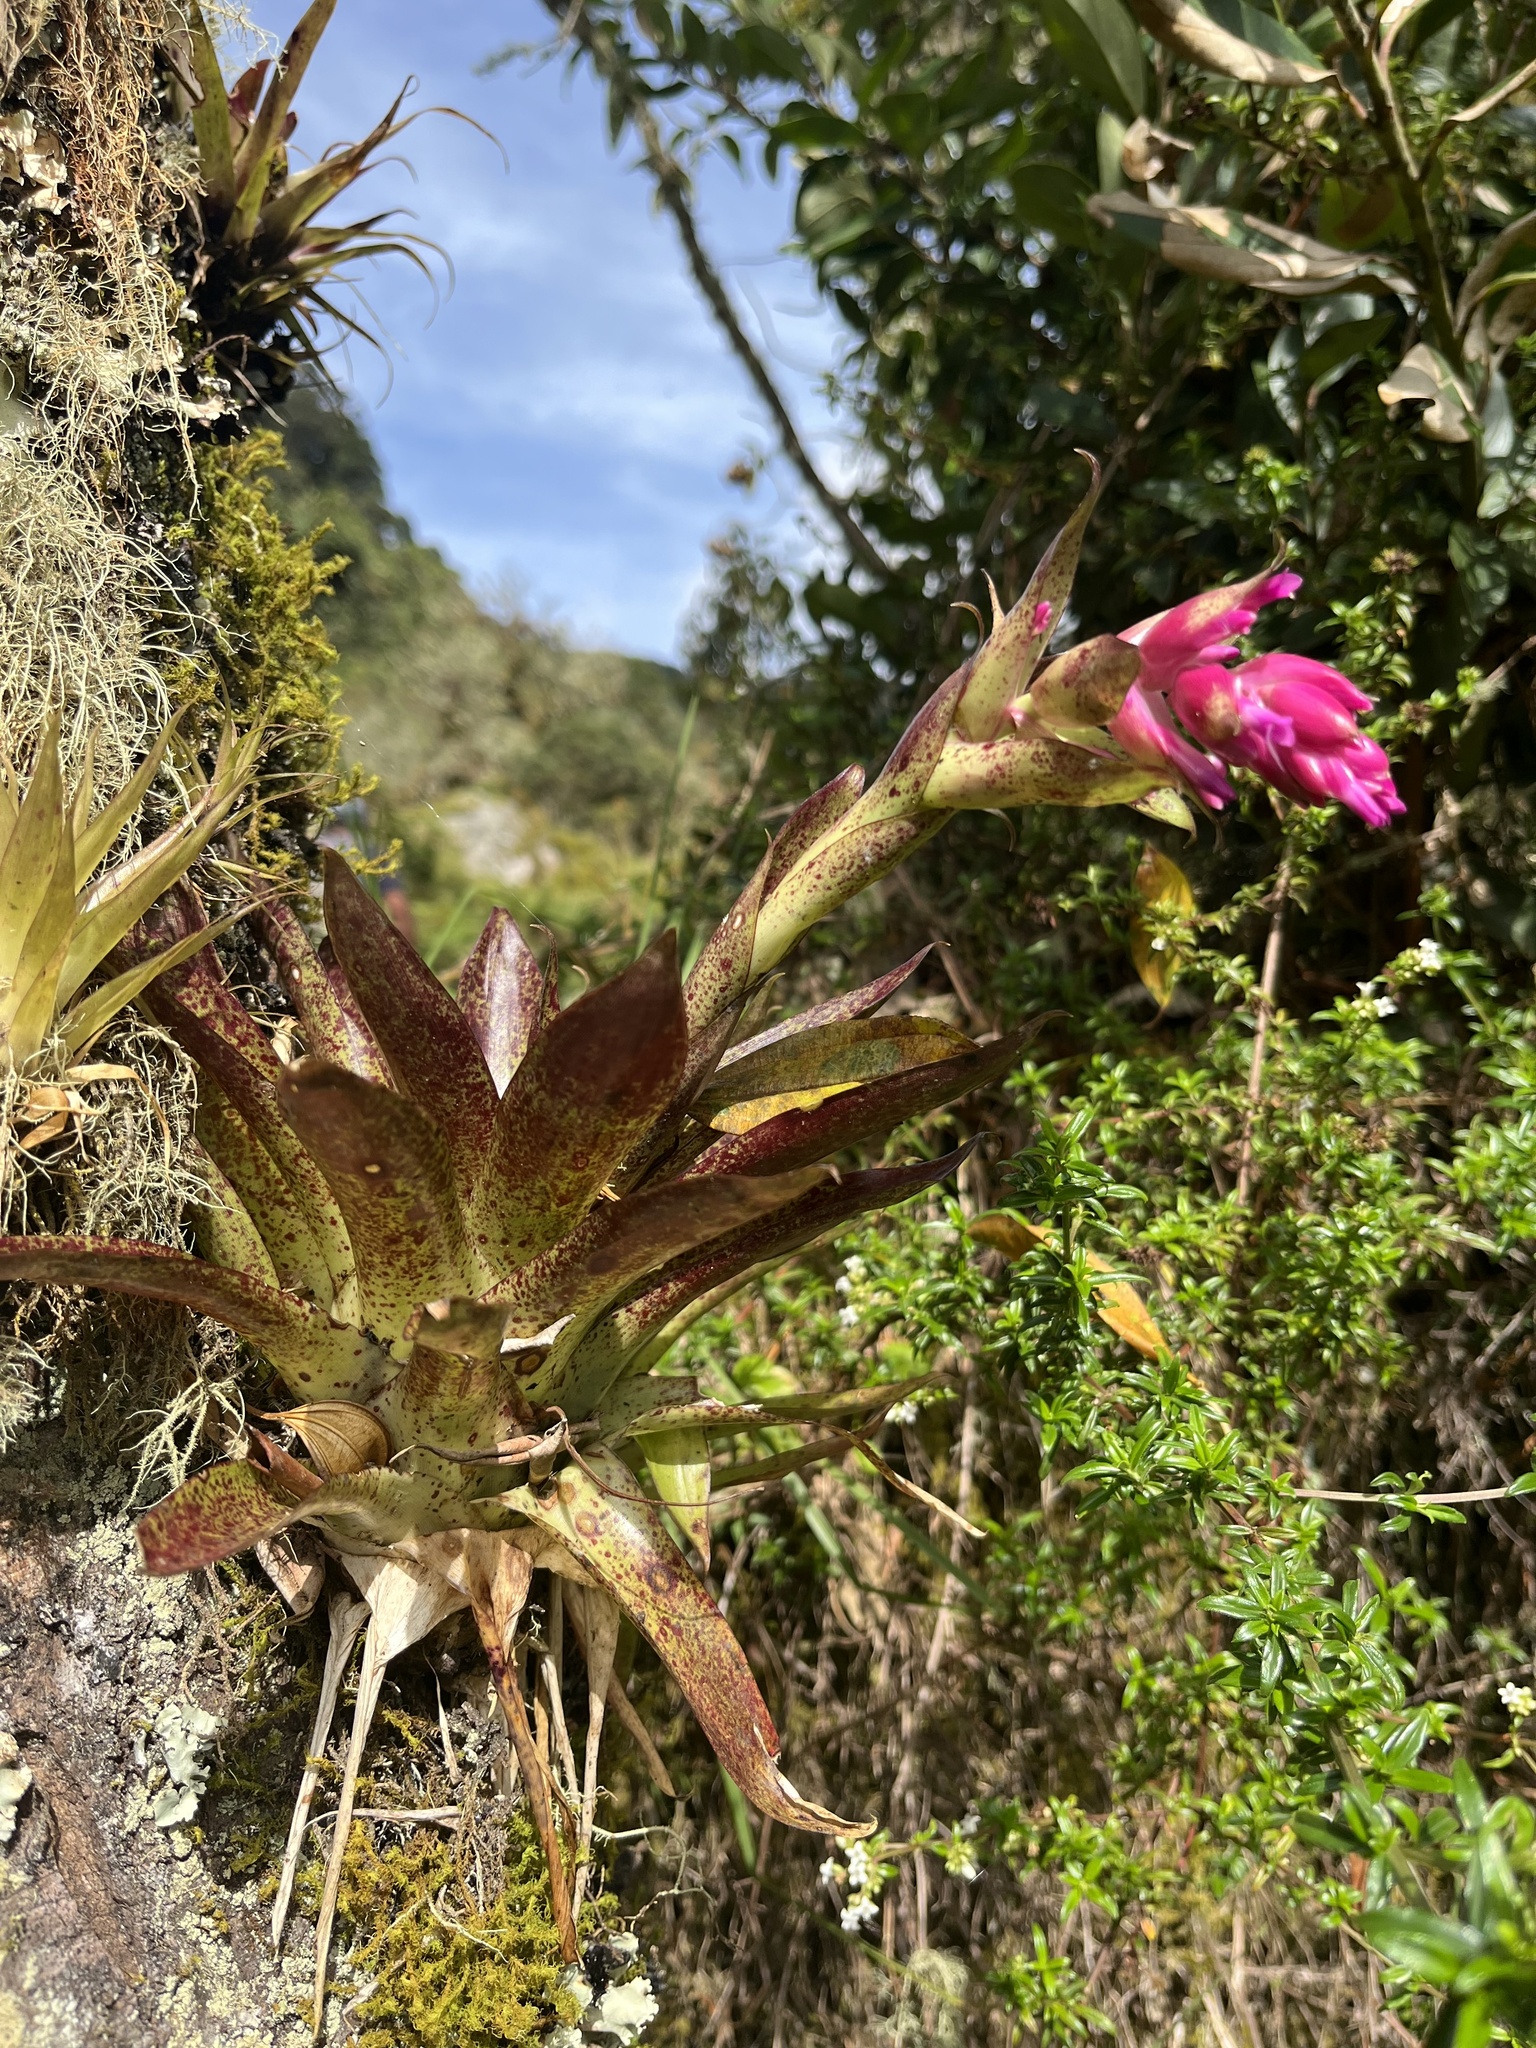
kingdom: Plantae
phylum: Tracheophyta
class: Liliopsida
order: Poales
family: Bromeliaceae
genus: Tillandsia
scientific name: Tillandsia biflora
